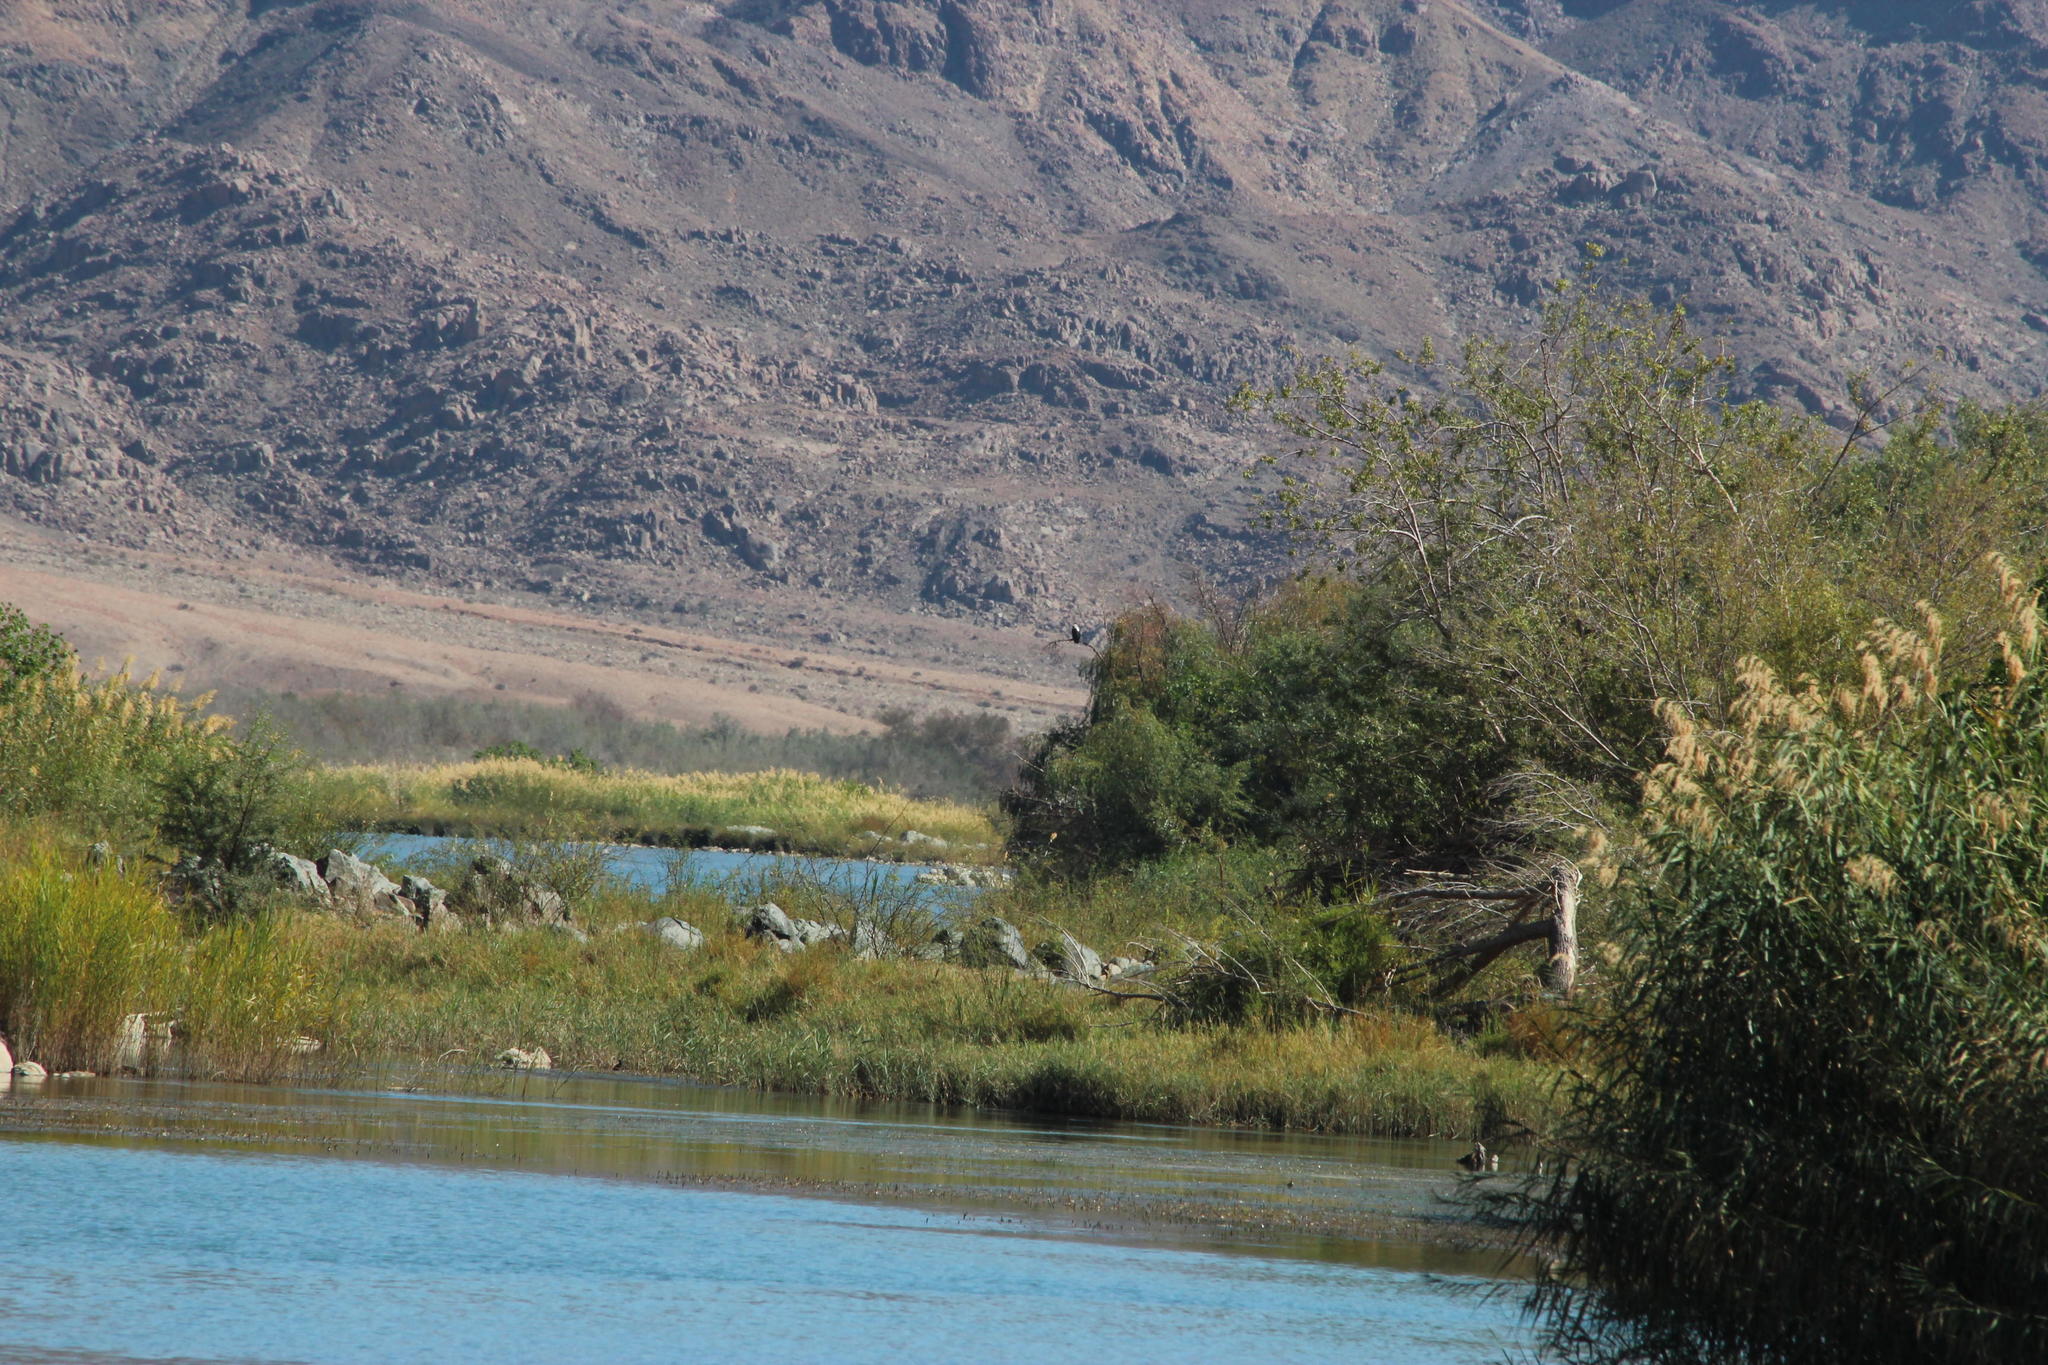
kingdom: Animalia
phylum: Chordata
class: Aves
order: Accipitriformes
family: Accipitridae
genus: Haliaeetus
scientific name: Haliaeetus vocifer
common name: African fish eagle
